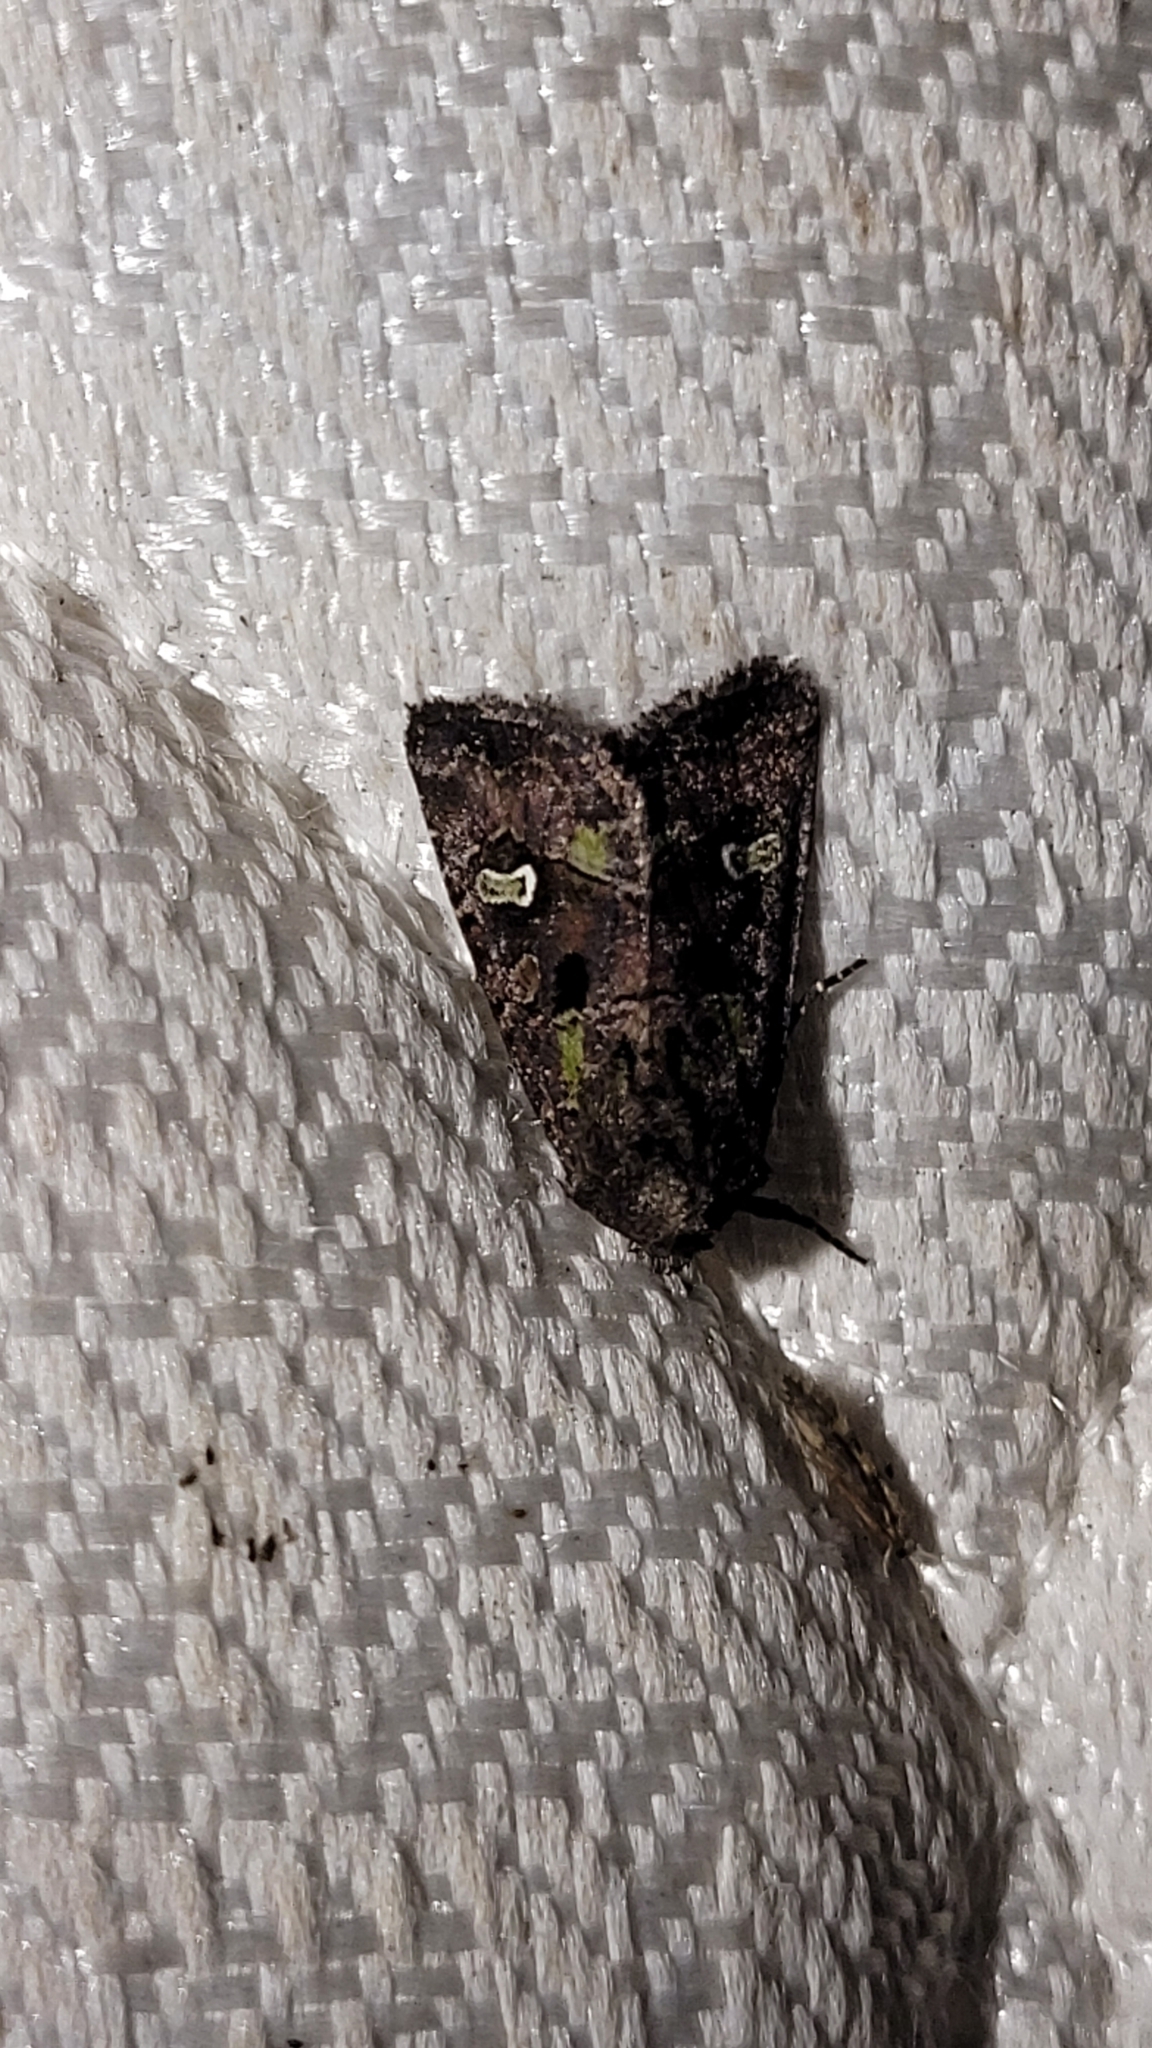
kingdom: Animalia
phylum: Arthropoda
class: Insecta
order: Lepidoptera
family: Noctuidae
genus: Lacinipolia
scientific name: Lacinipolia renigera
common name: Kidney-spotted minor
